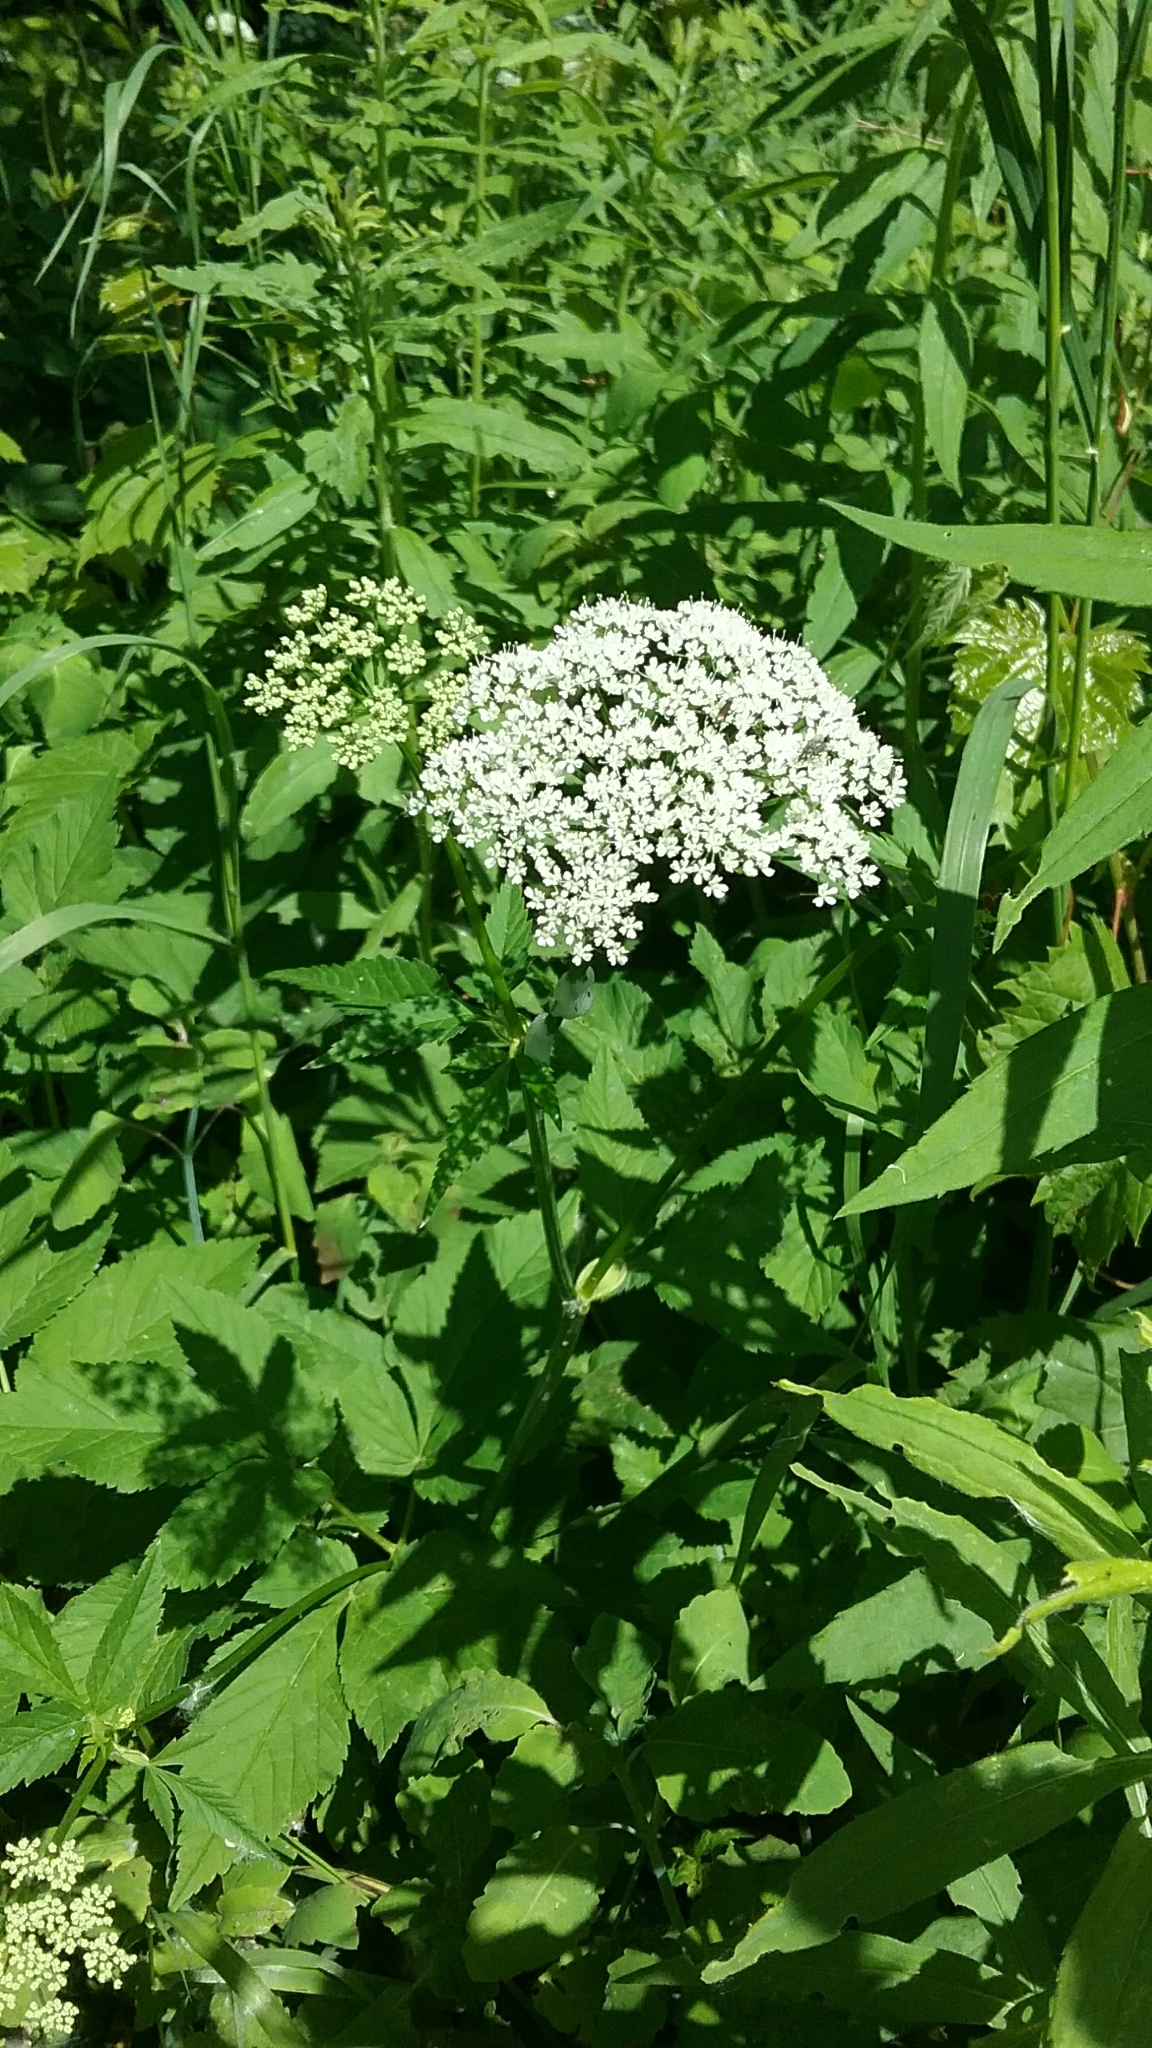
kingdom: Plantae
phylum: Tracheophyta
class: Magnoliopsida
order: Apiales
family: Apiaceae
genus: Heracleum
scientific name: Heracleum maximum
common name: American cow parsnip
